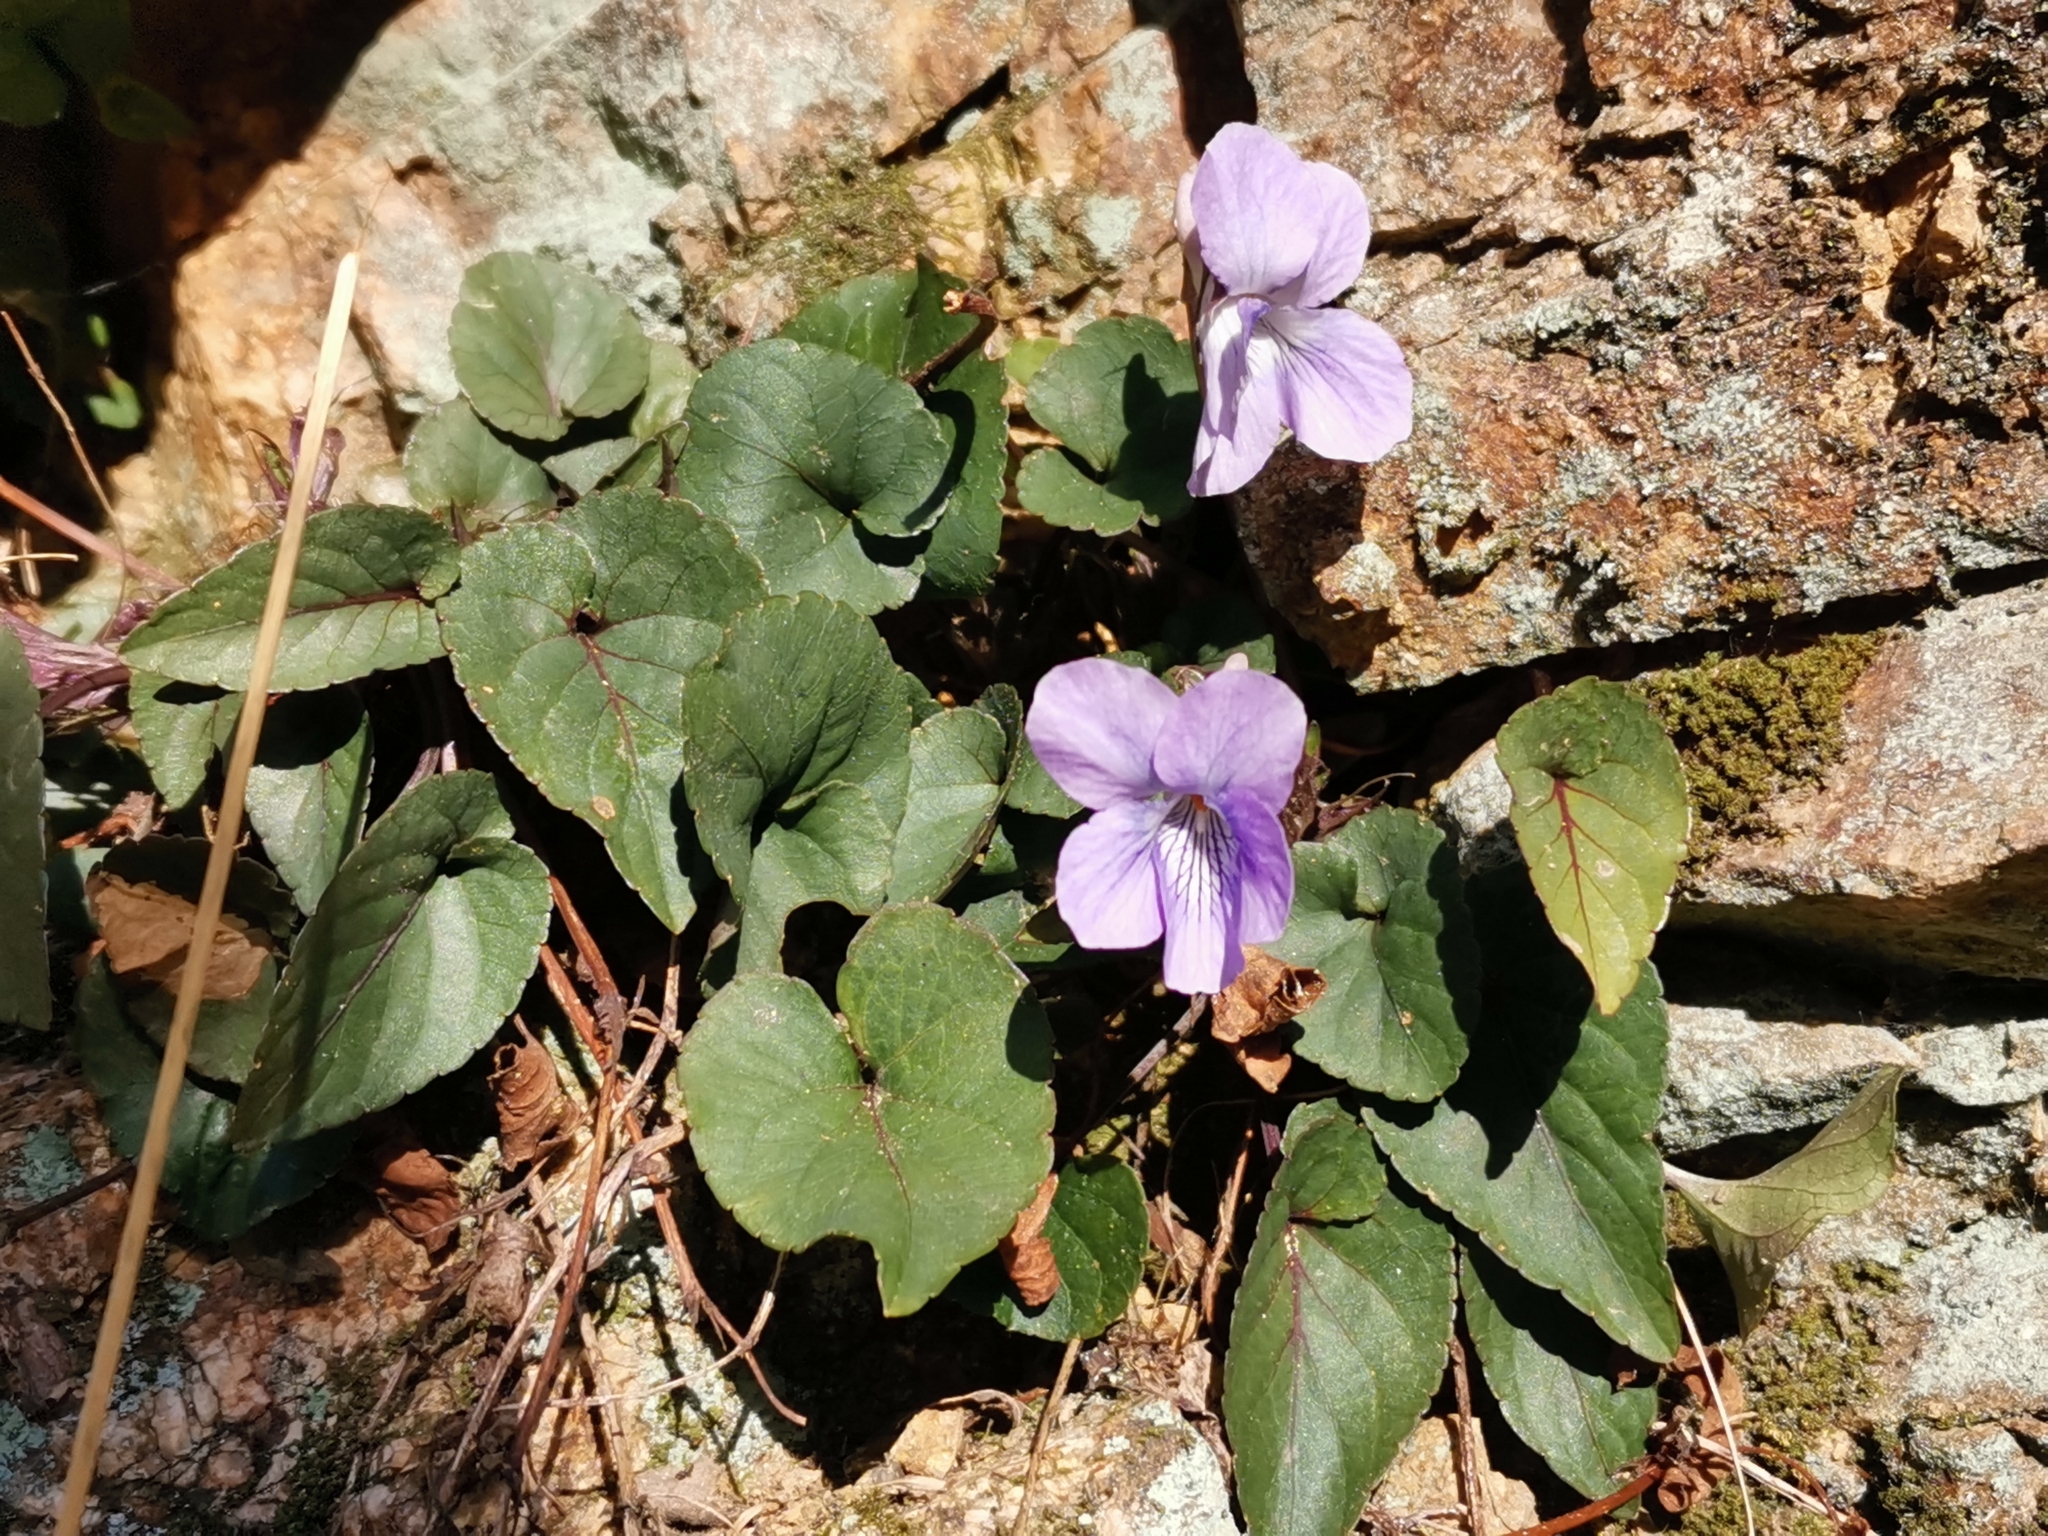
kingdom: Plantae
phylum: Tracheophyta
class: Magnoliopsida
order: Malpighiales
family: Violaceae
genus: Viola
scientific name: Viola ovatooblonga
